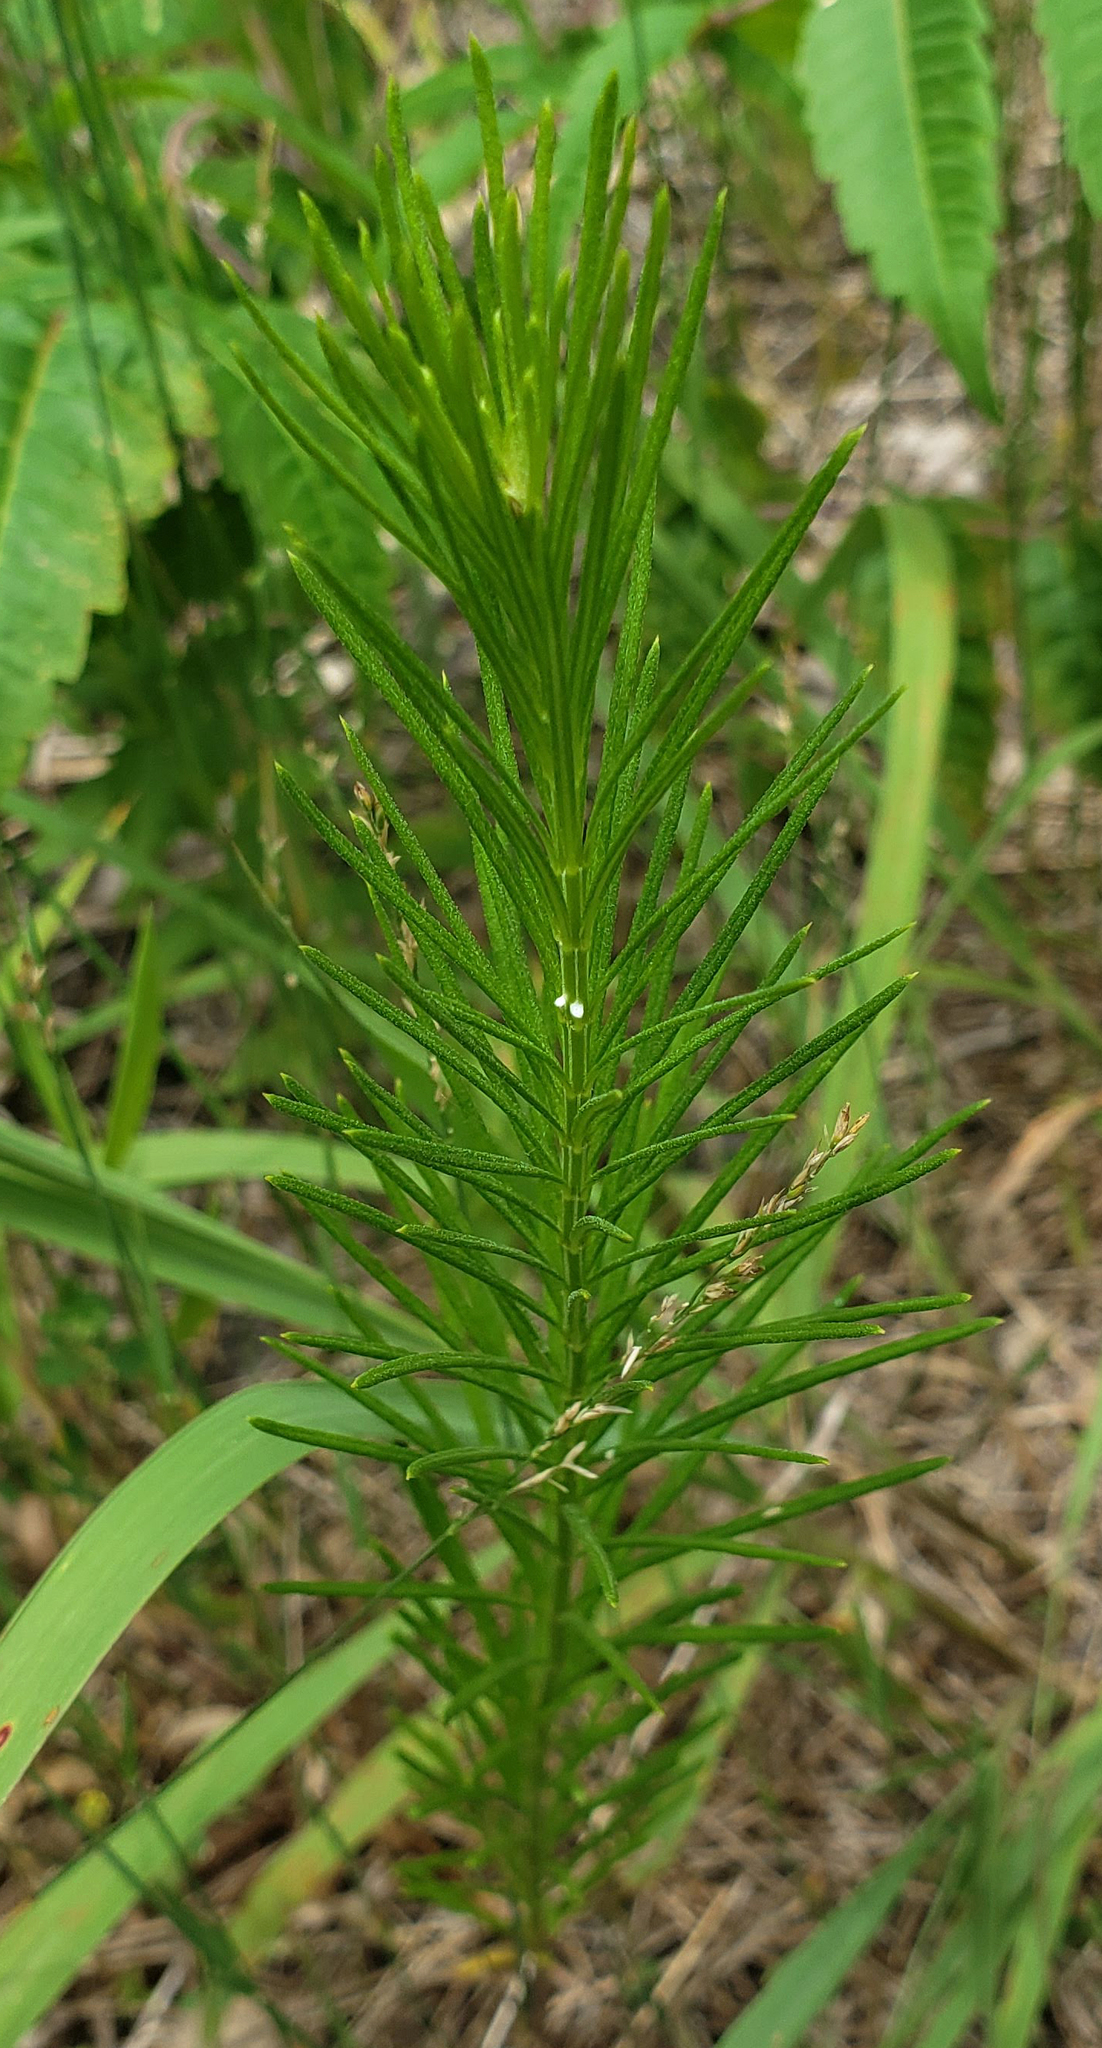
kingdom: Plantae
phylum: Tracheophyta
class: Magnoliopsida
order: Gentianales
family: Apocynaceae
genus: Asclepias
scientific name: Asclepias verticillata
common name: Eastern whorled milkweed
